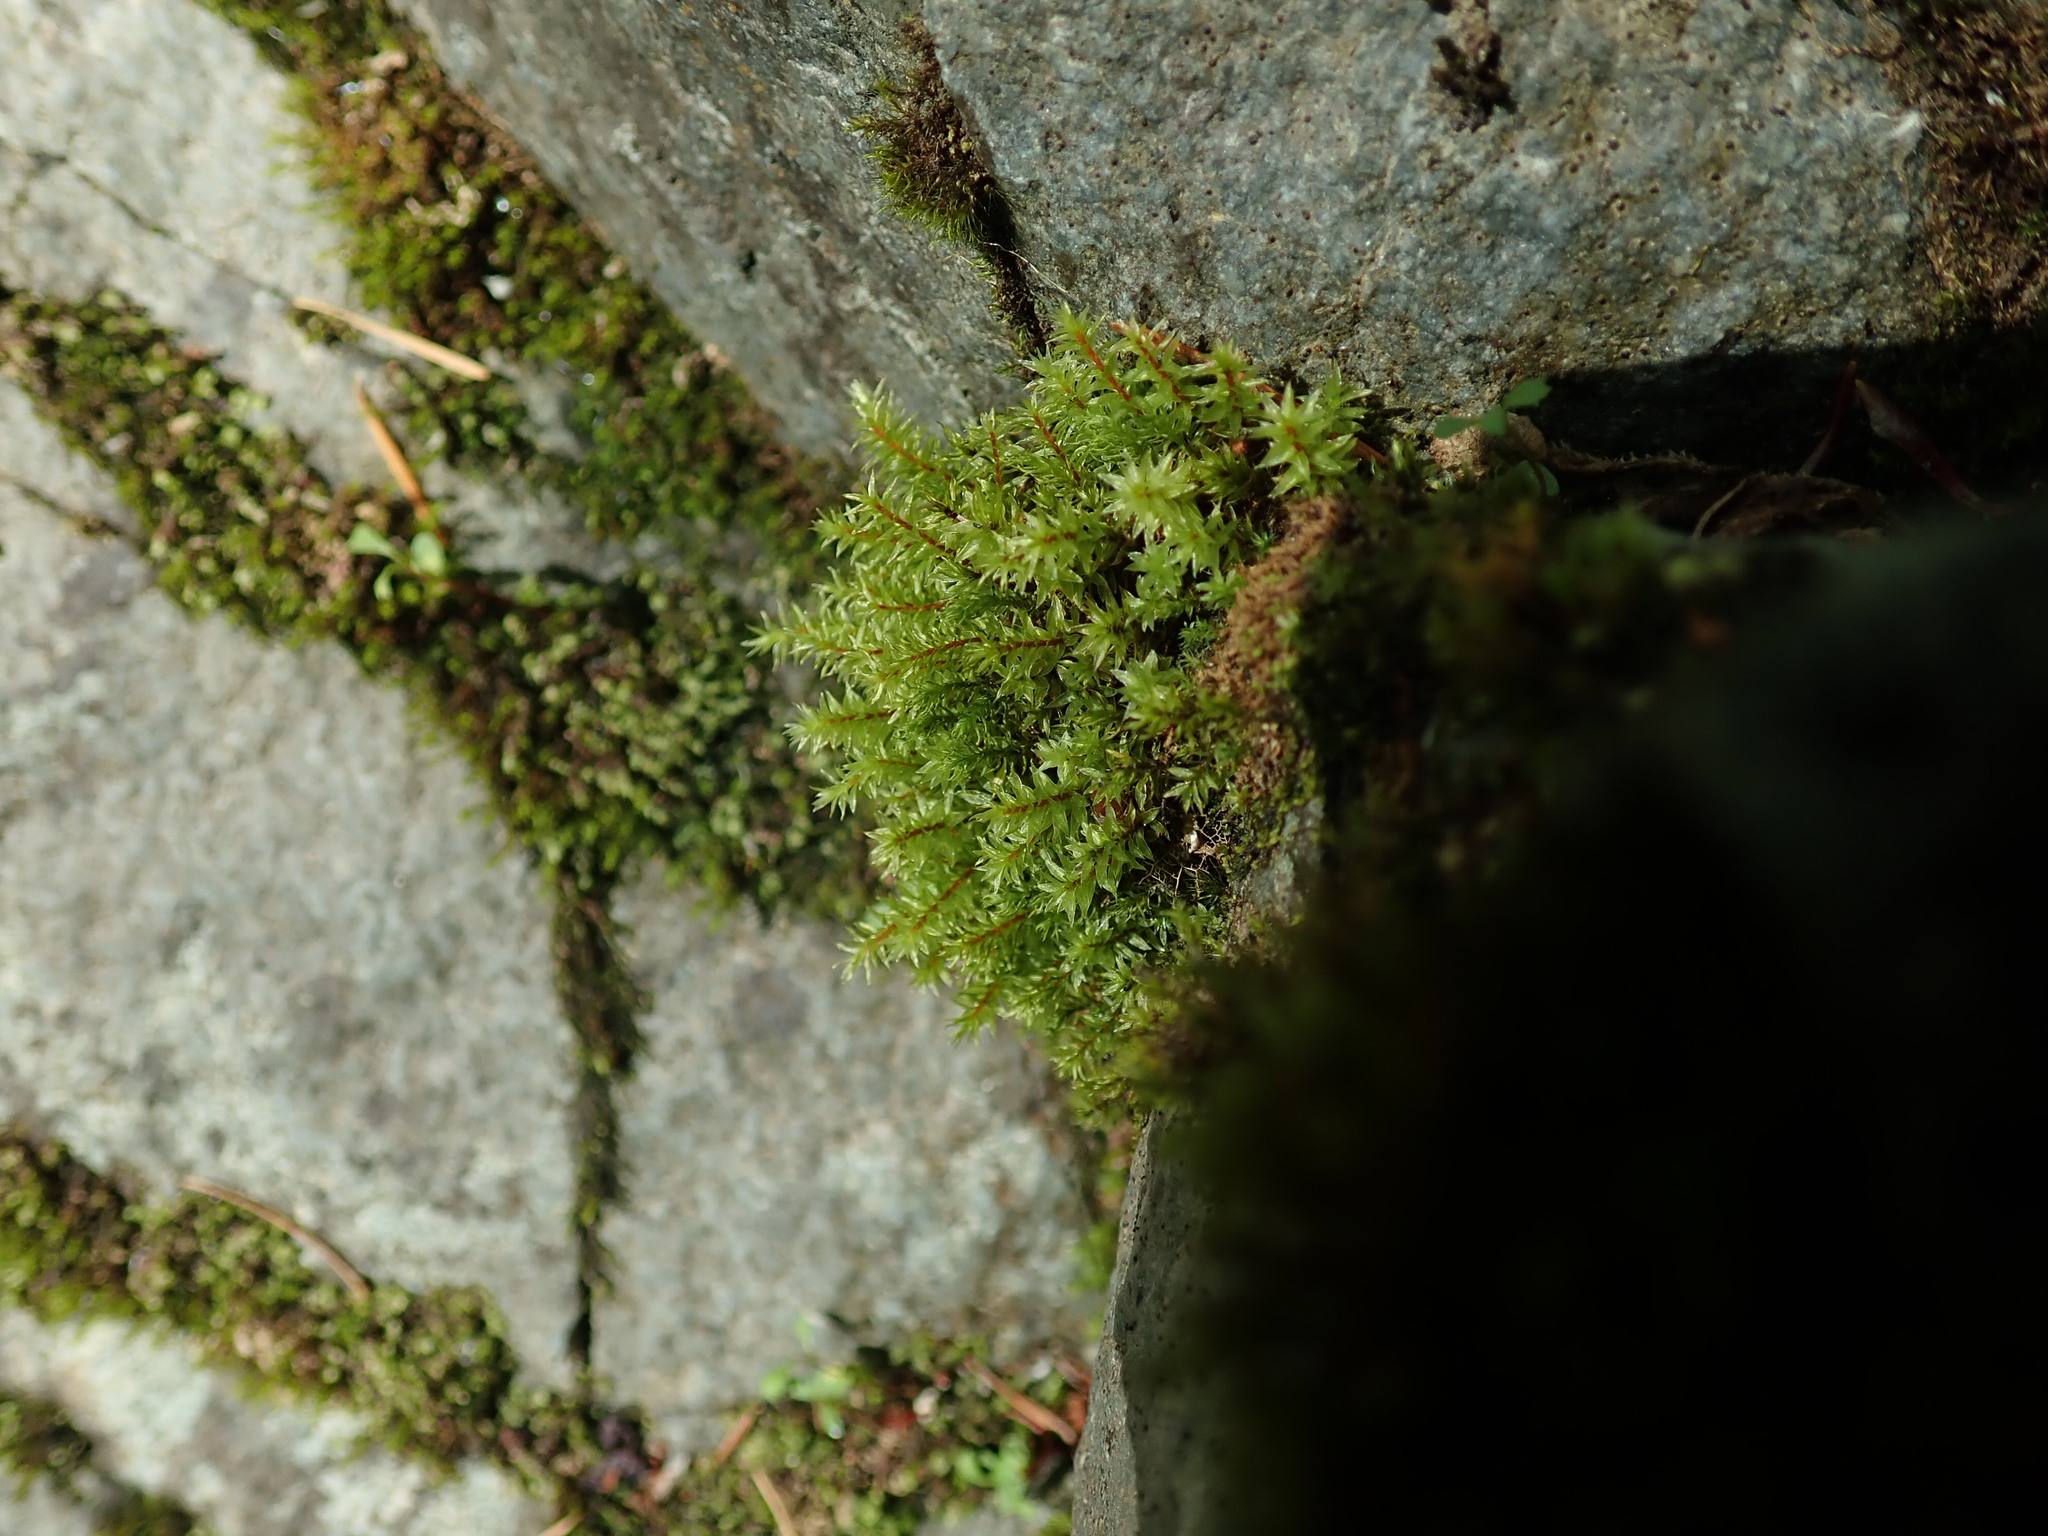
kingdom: Plantae
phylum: Bryophyta
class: Bryopsida
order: Timmiales
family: Timmiaceae
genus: Timmia
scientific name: Timmia austriaca
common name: Austrian timmia
